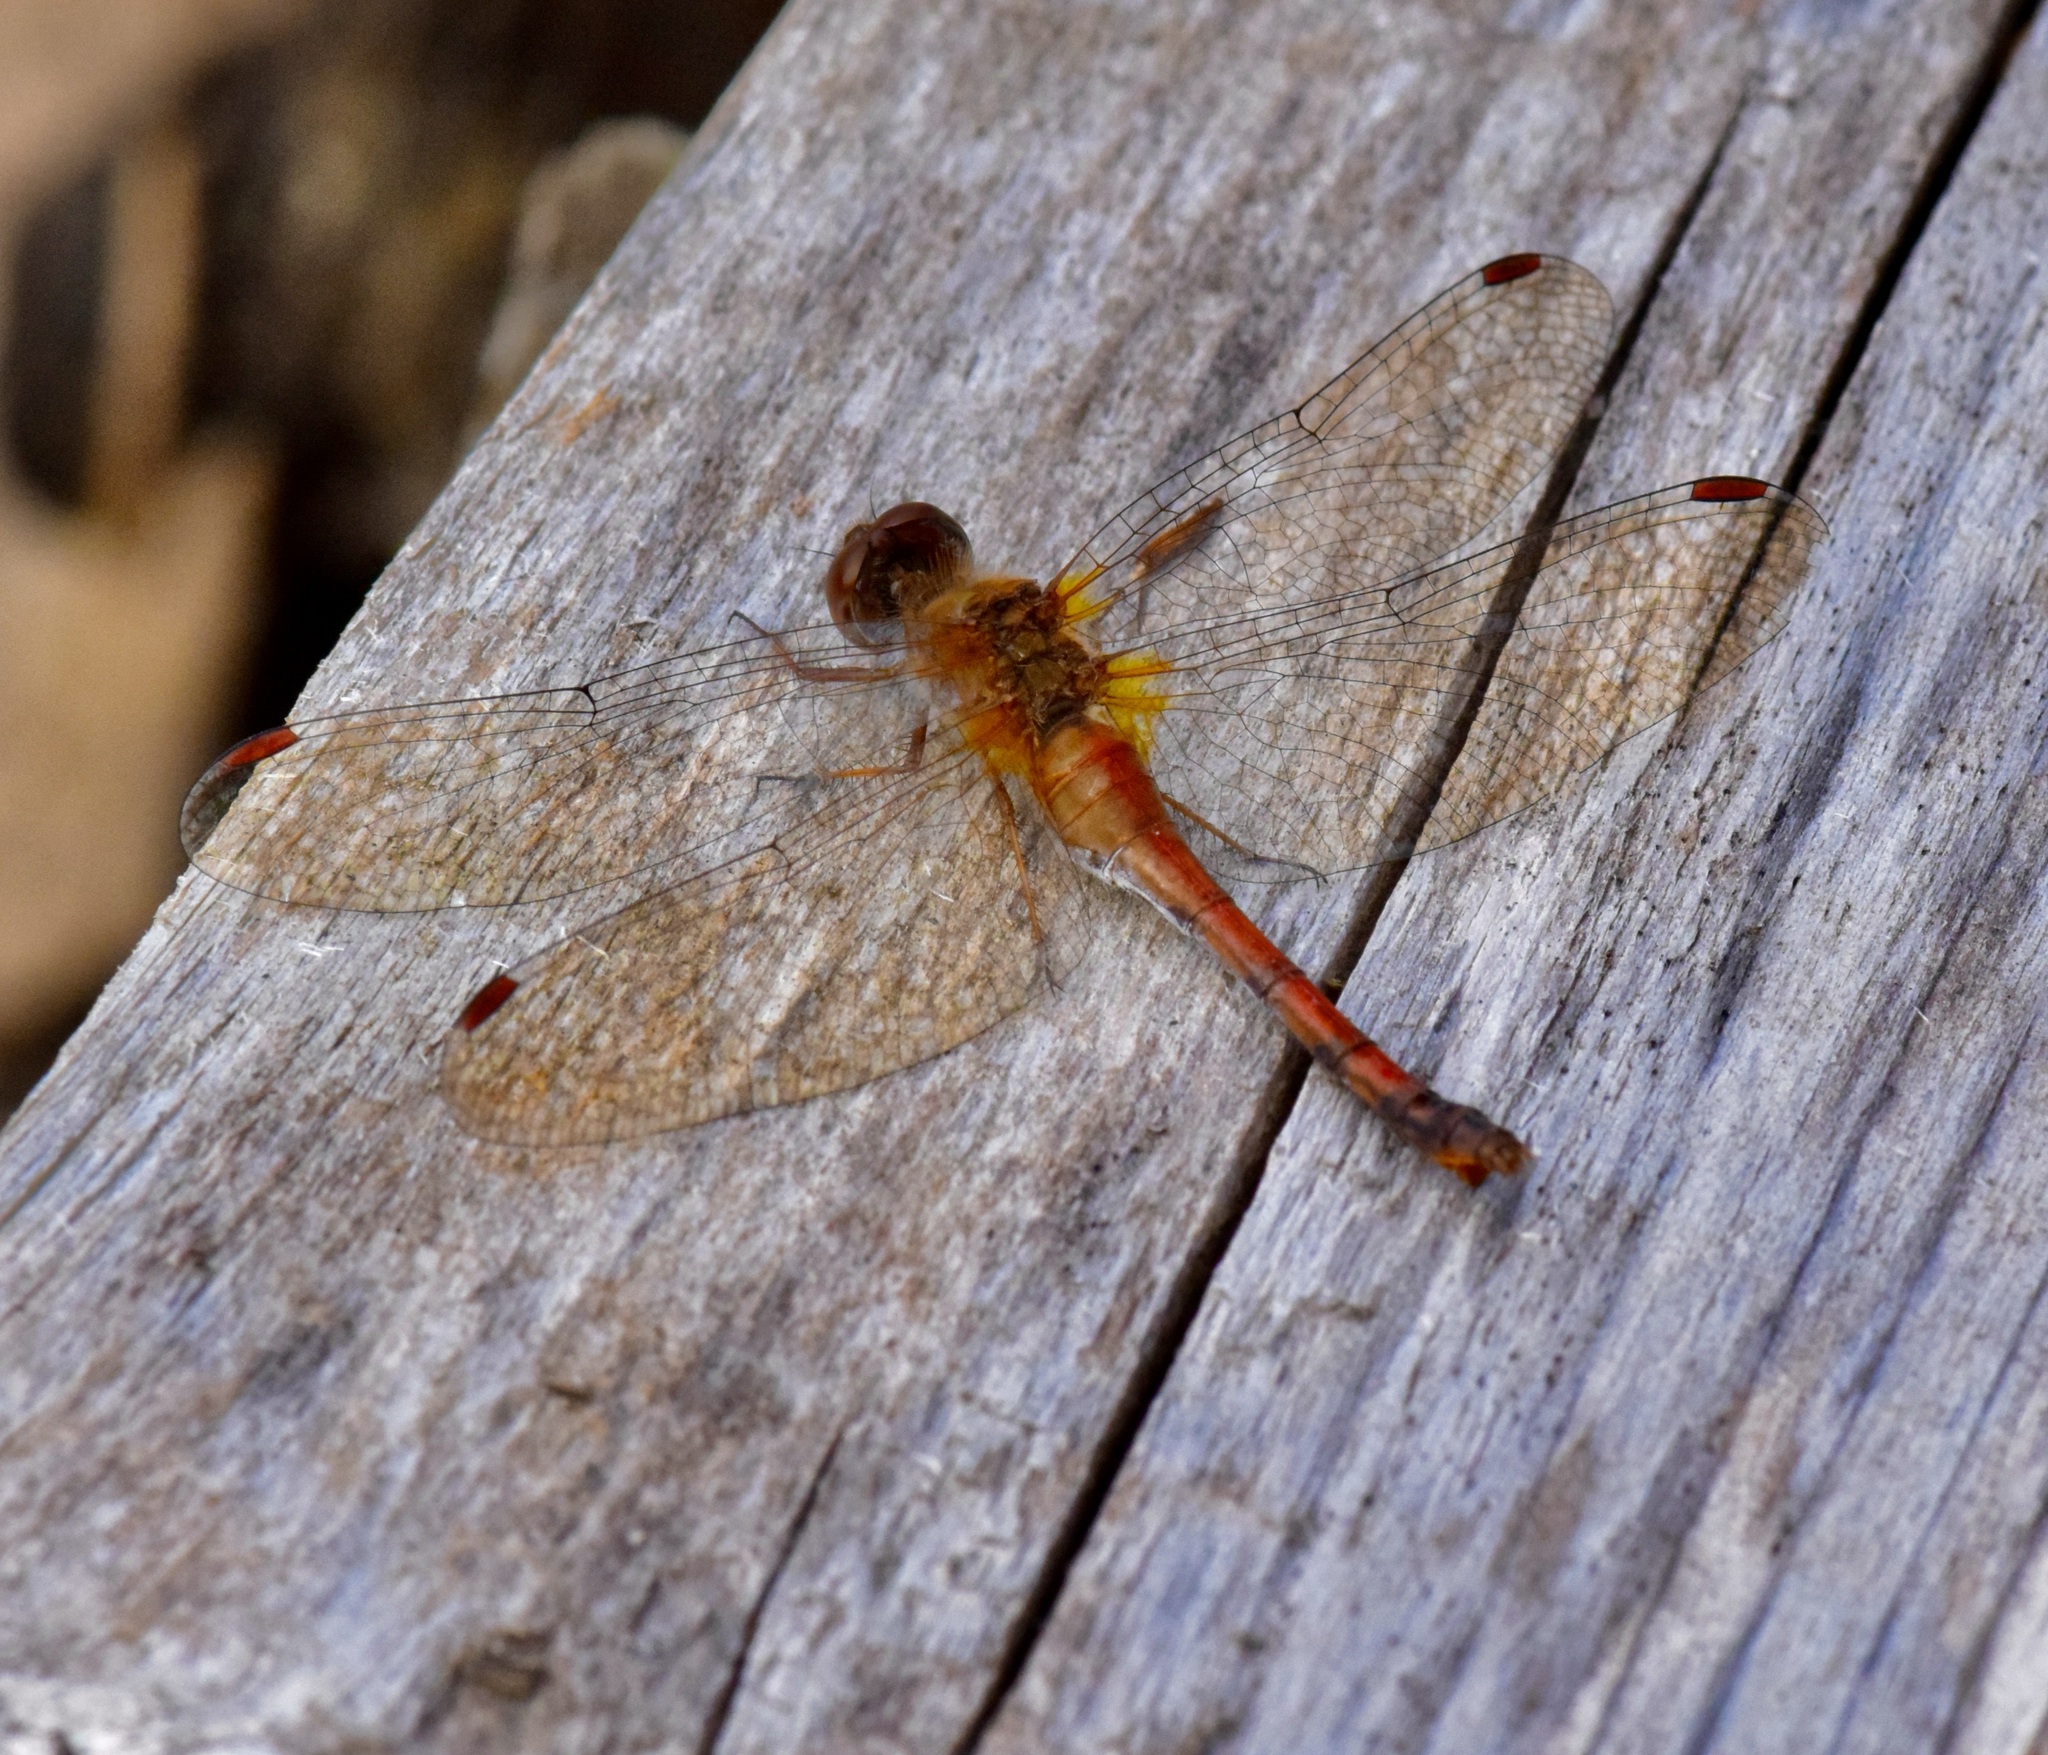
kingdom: Animalia
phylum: Arthropoda
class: Insecta
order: Odonata
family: Libellulidae
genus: Sympetrum
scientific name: Sympetrum vicinum
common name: Autumn meadowhawk
